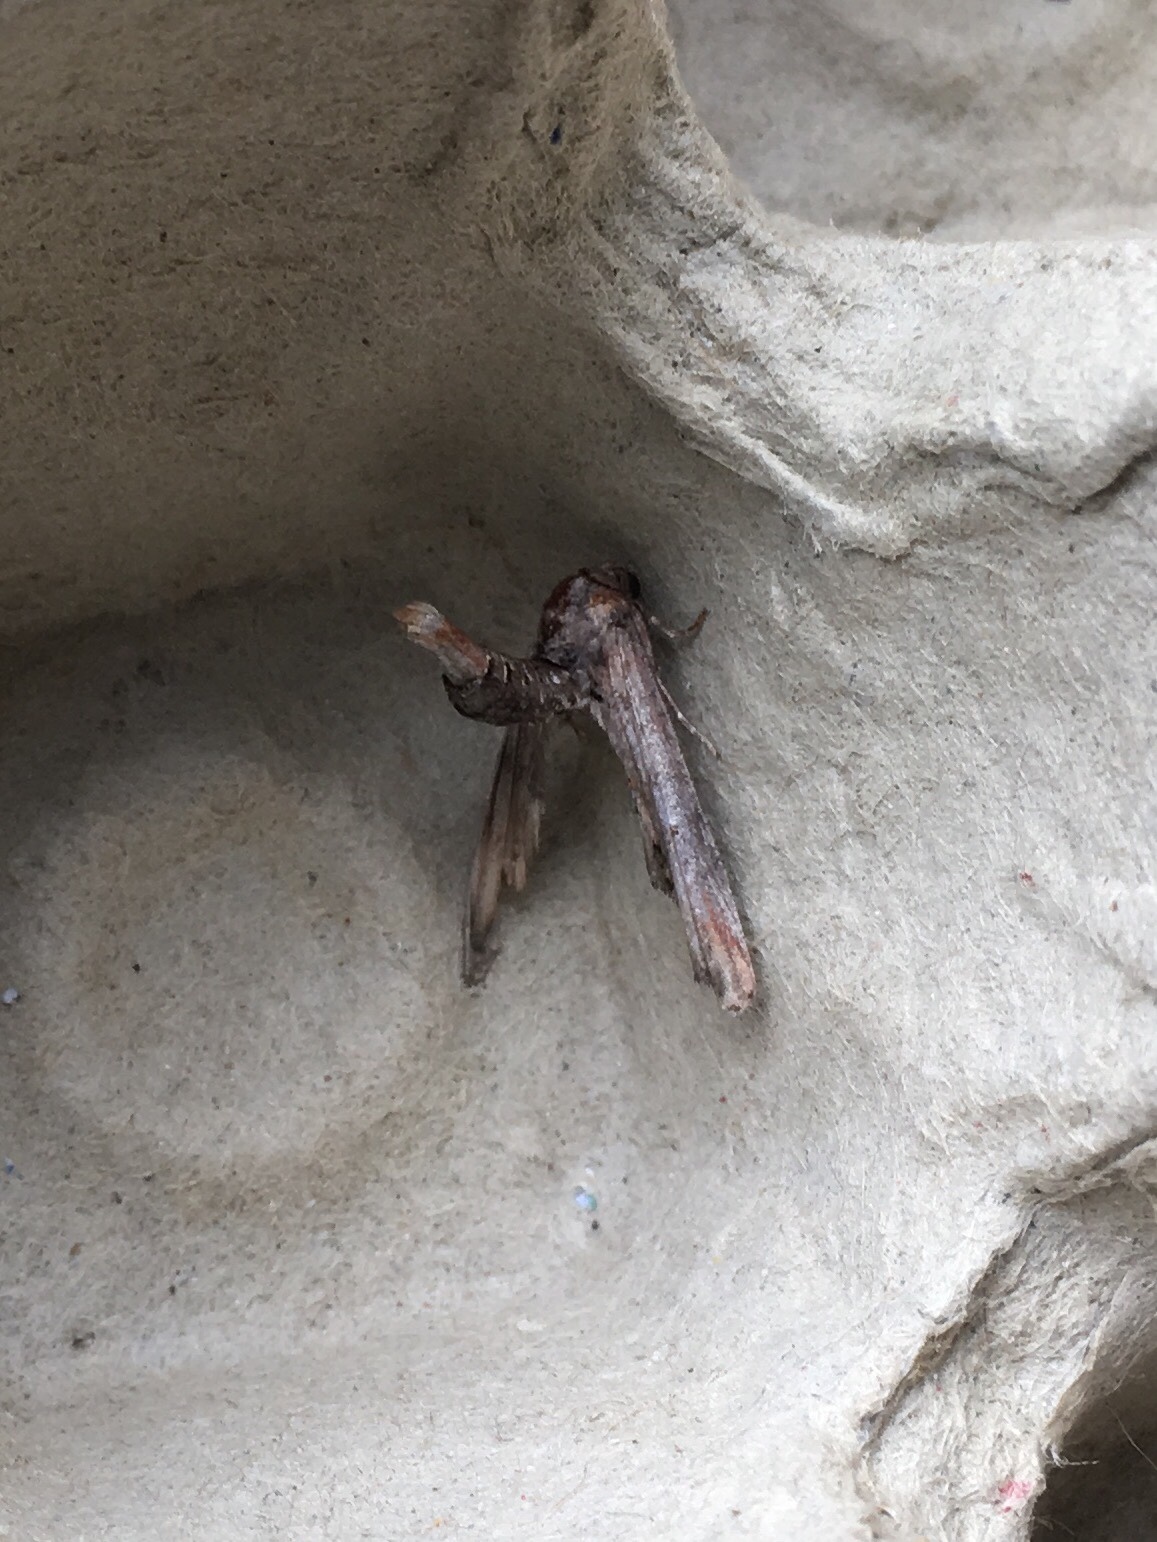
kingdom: Animalia
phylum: Arthropoda
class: Insecta
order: Lepidoptera
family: Euteliidae
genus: Marathyssa
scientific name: Marathyssa inficita
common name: Dark marathyssa moth
